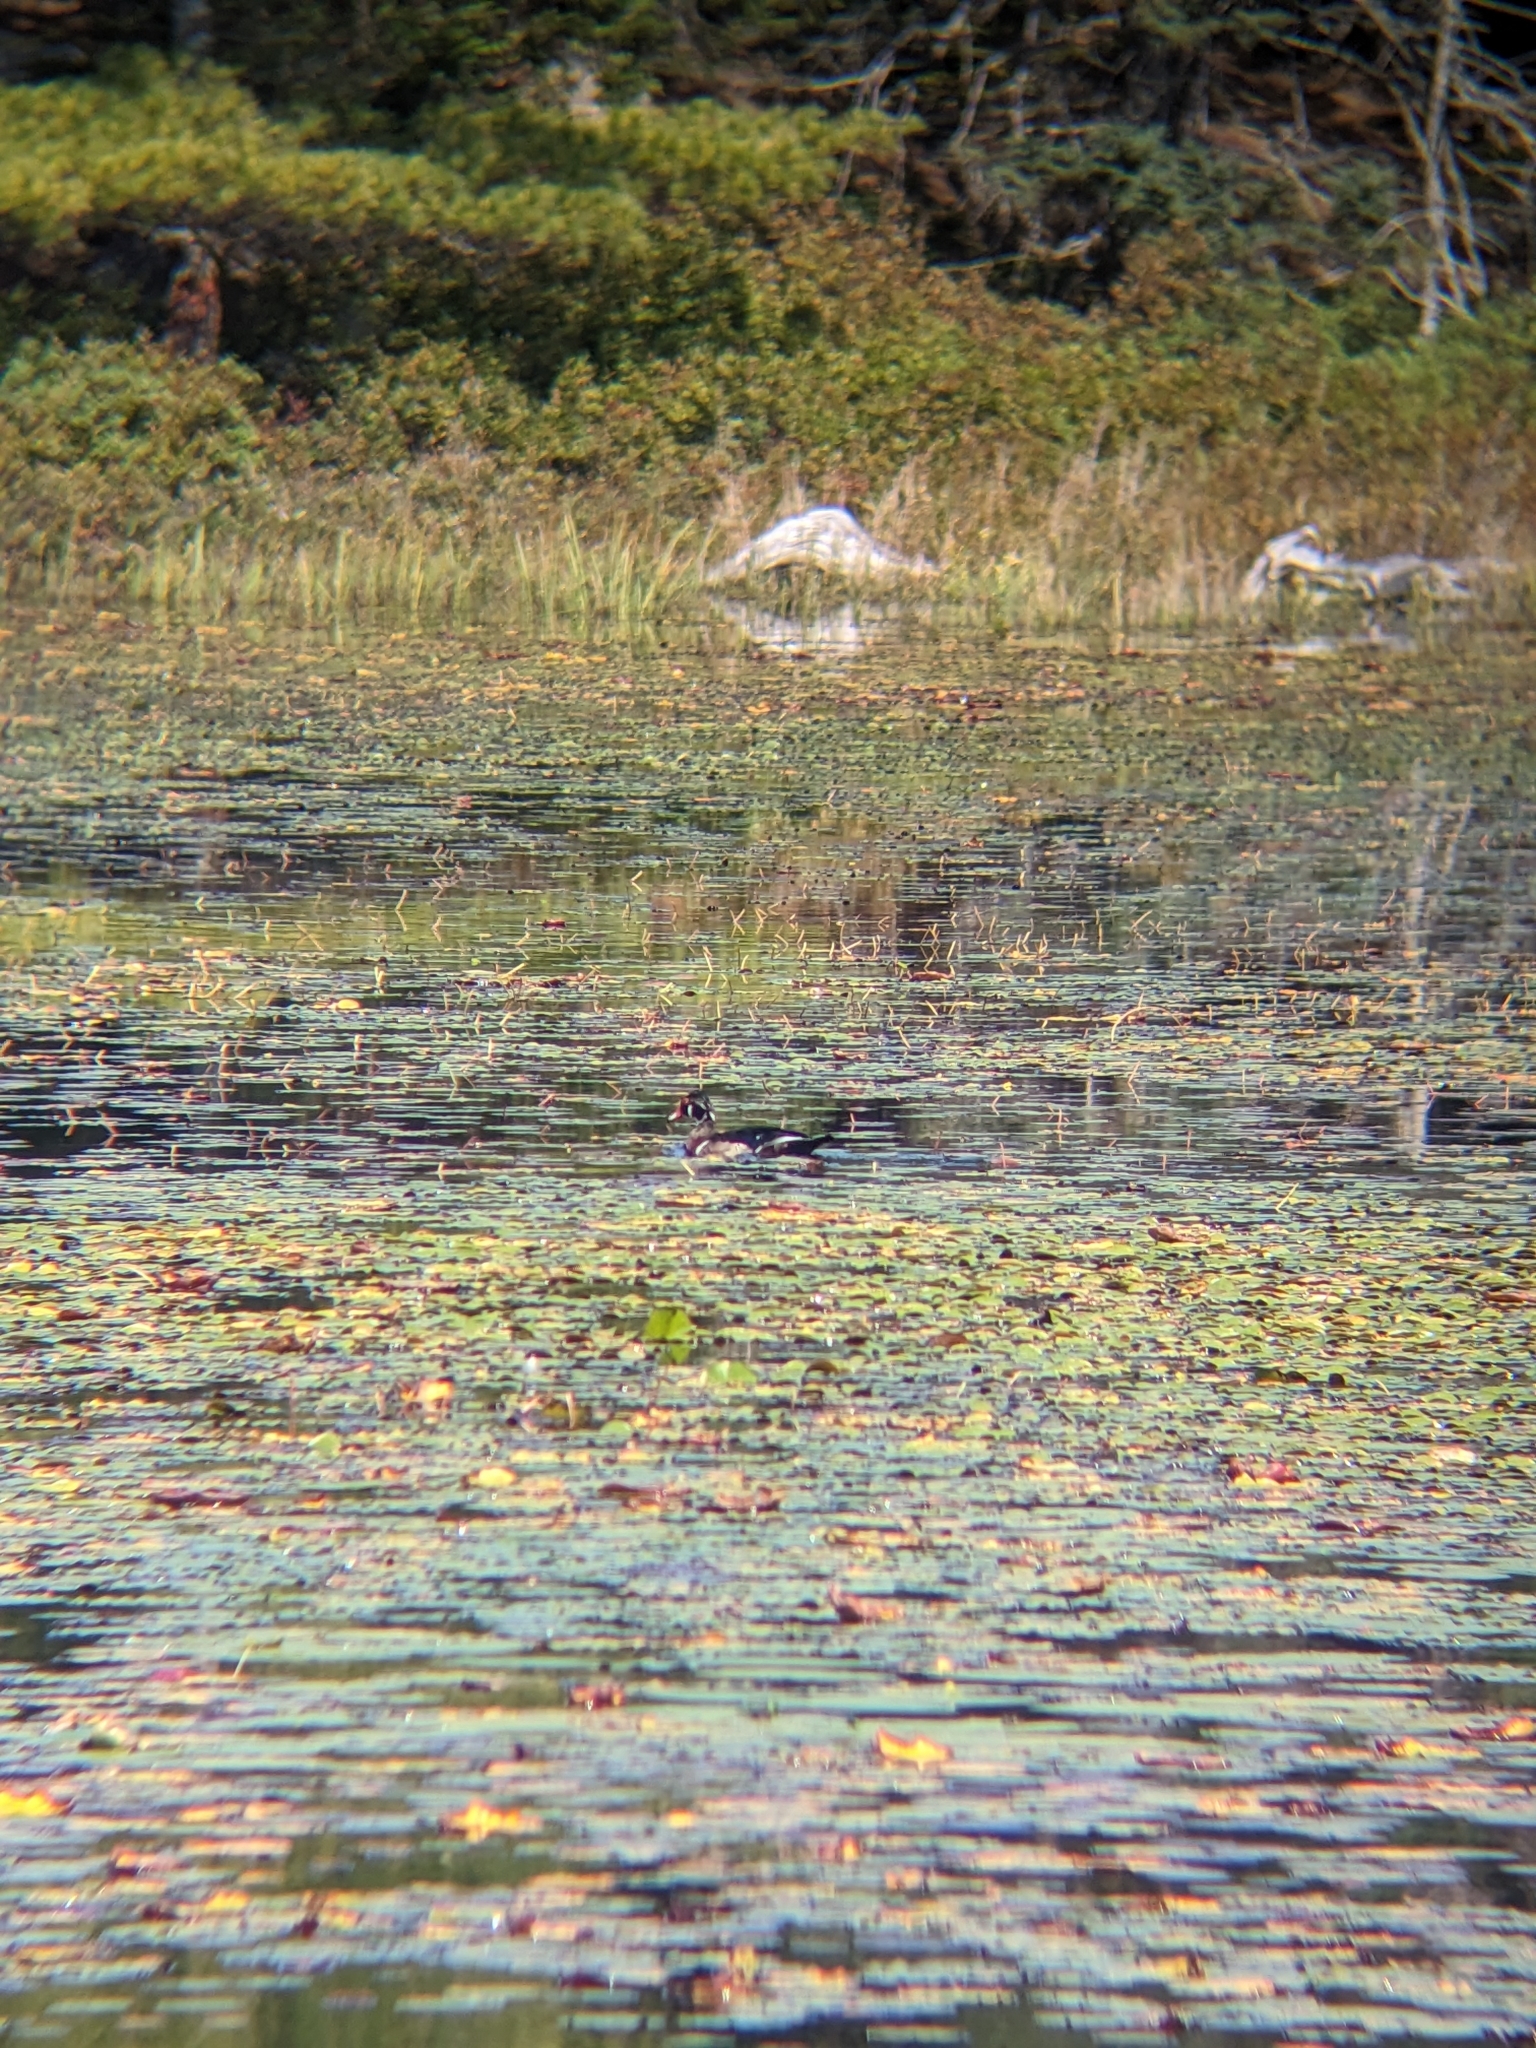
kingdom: Animalia
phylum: Chordata
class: Aves
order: Anseriformes
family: Anatidae
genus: Aix
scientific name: Aix sponsa
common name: Wood duck
